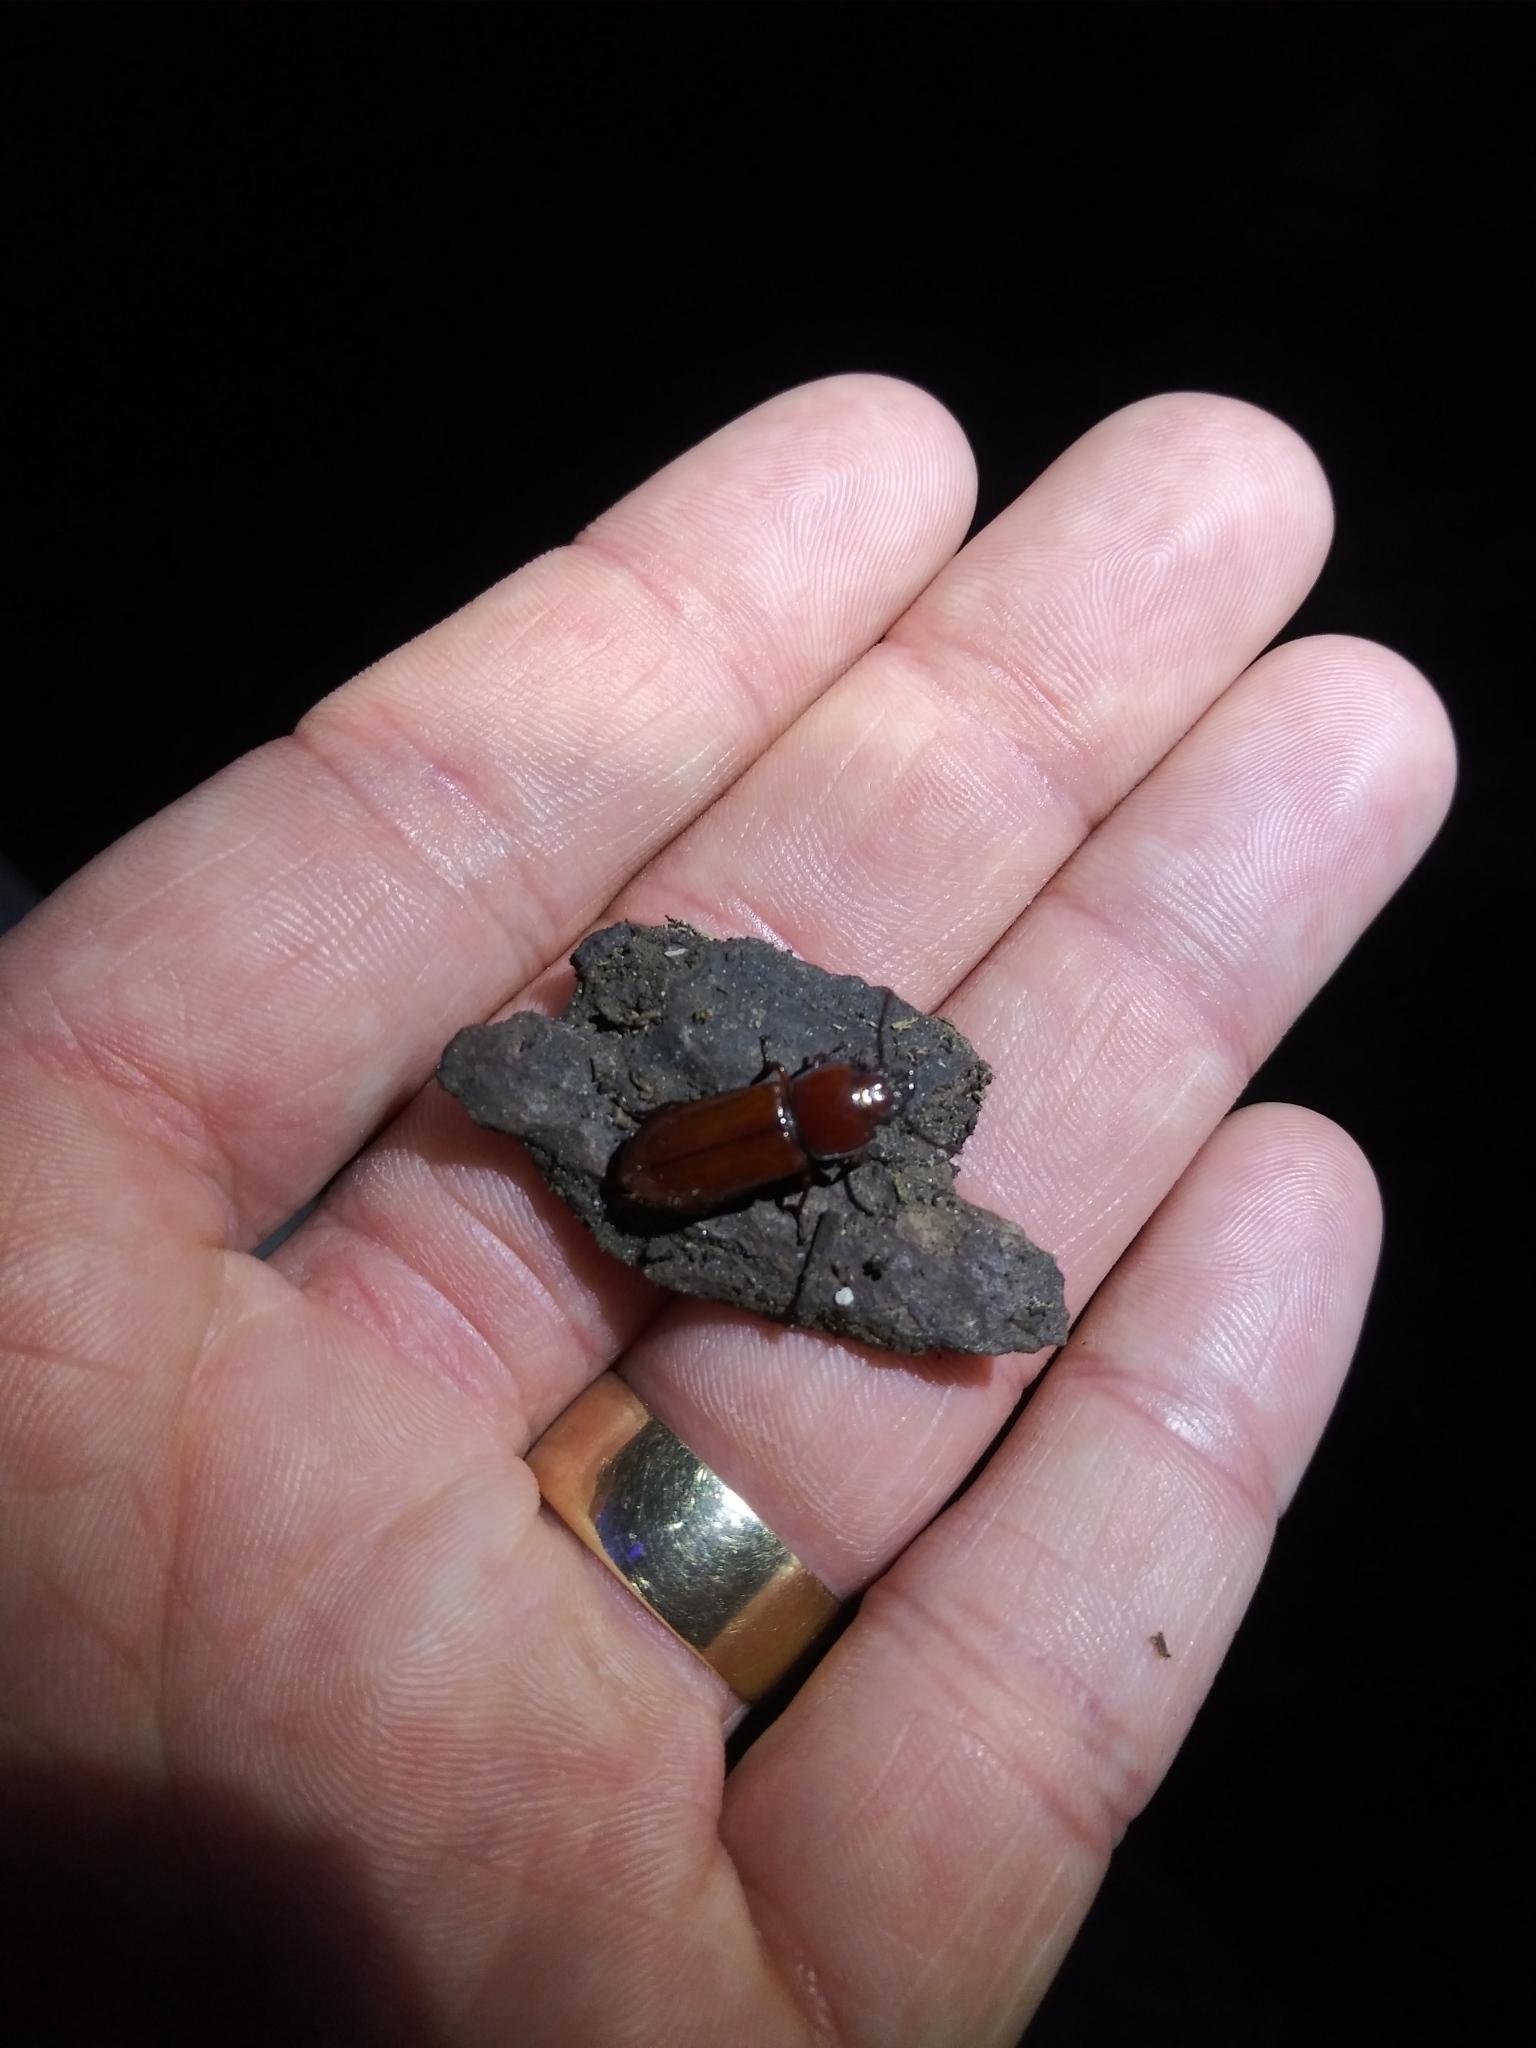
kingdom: Animalia
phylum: Arthropoda
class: Insecta
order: Coleoptera
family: Cerambycidae
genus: Neandra
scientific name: Neandra brunnea
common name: Pole borer
